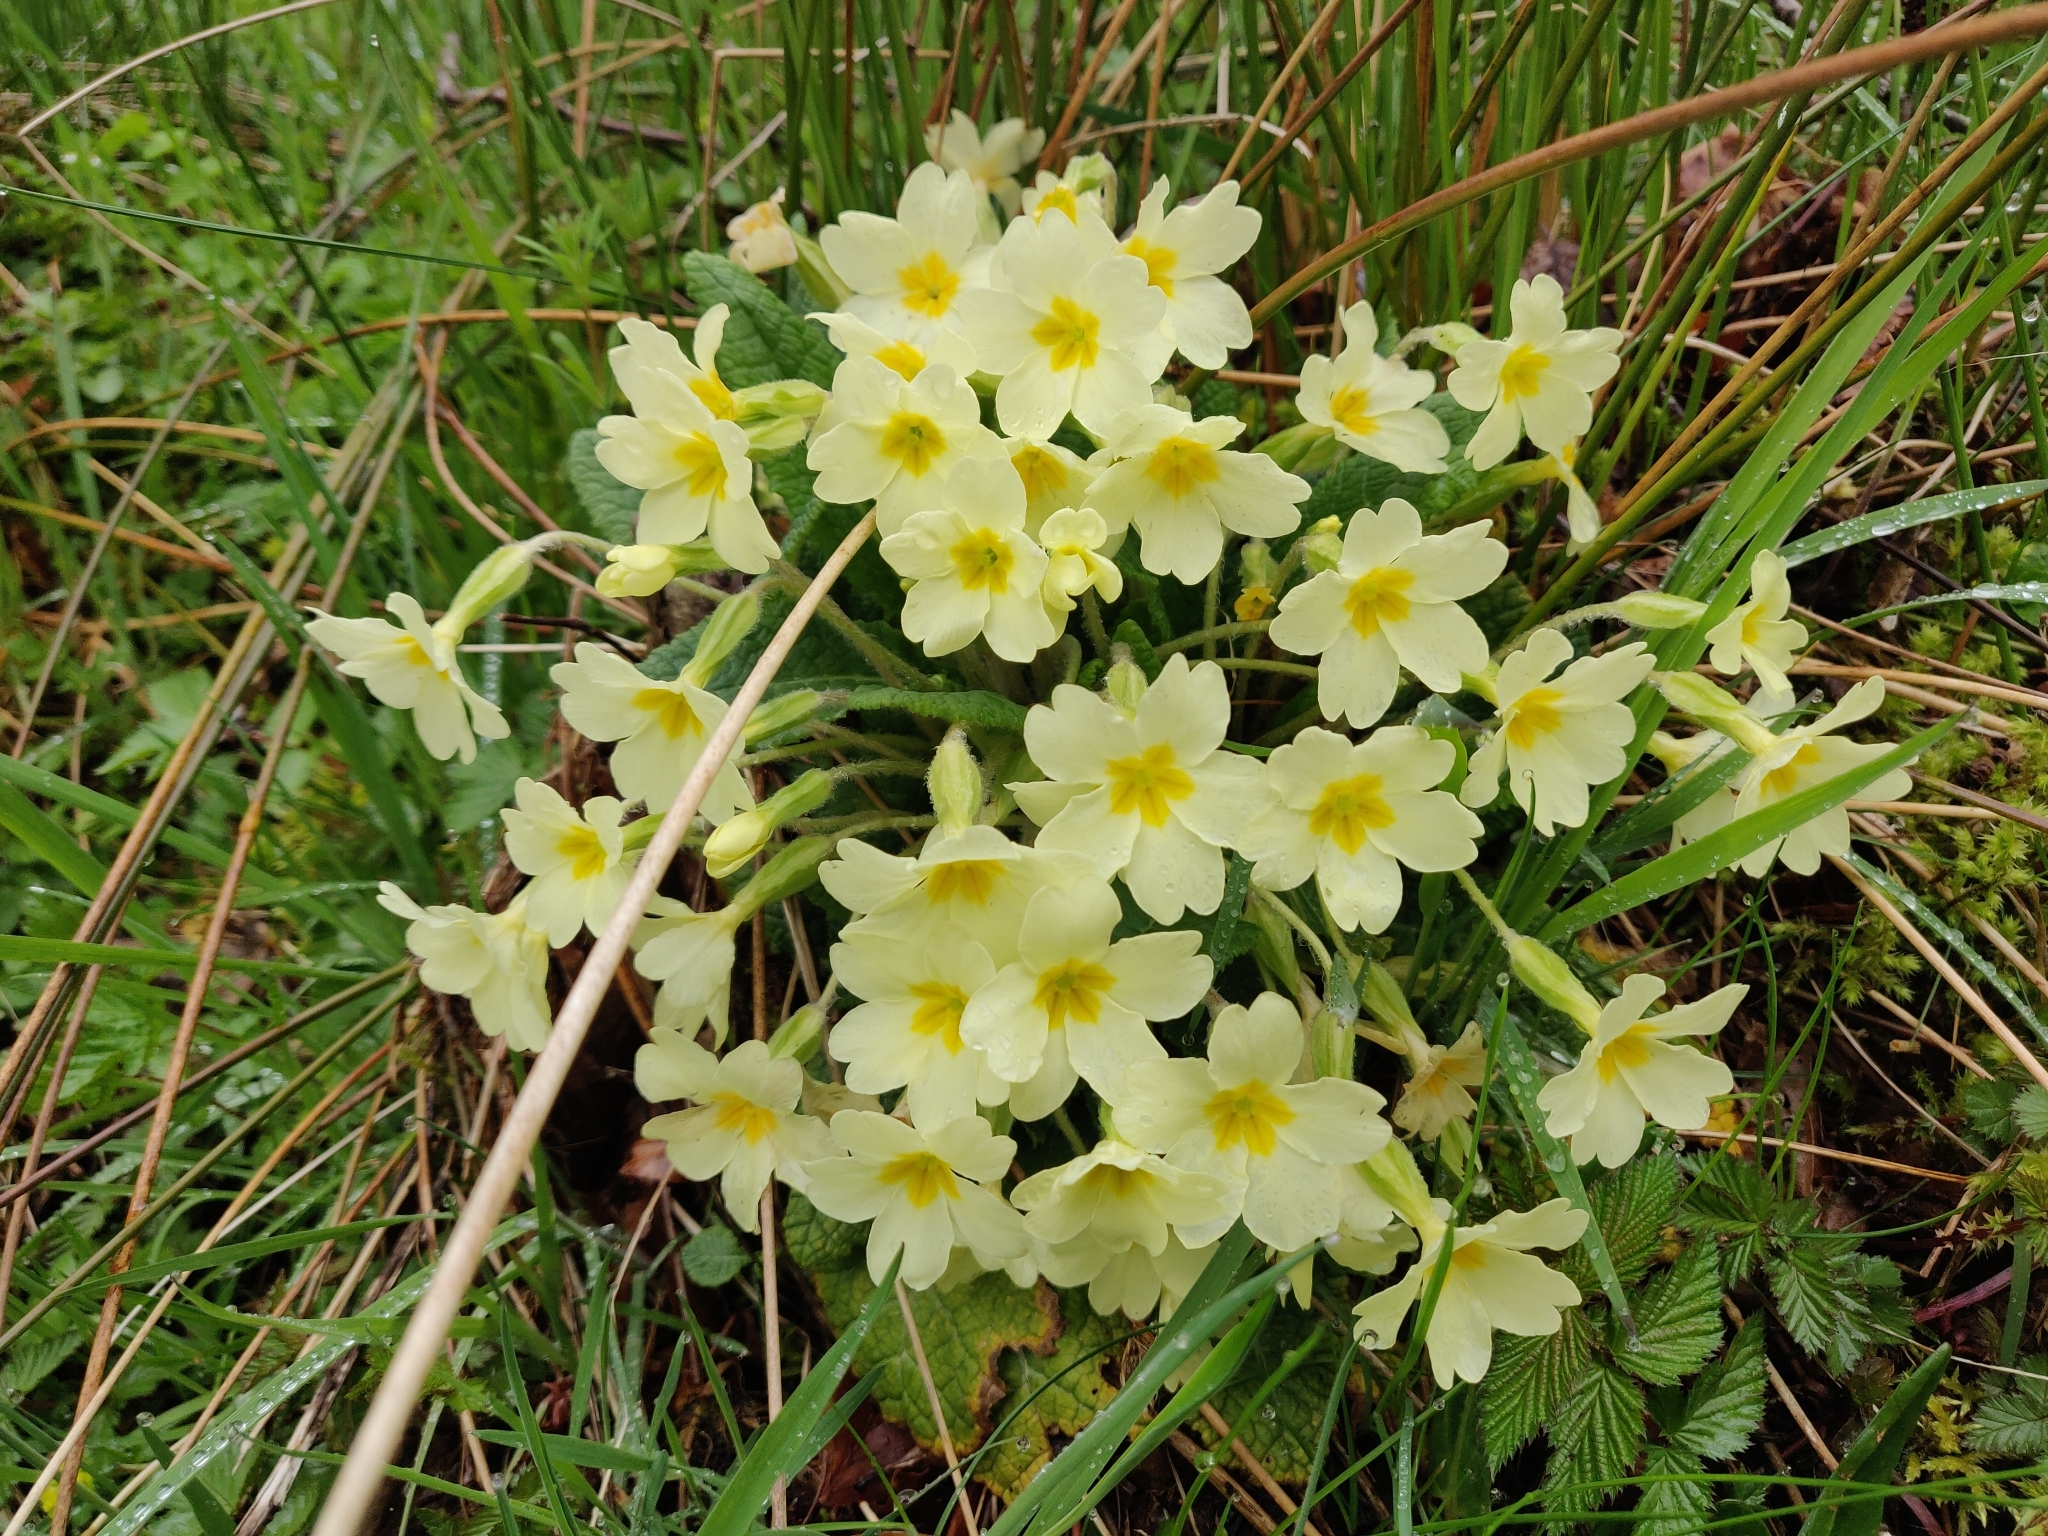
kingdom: Plantae
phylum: Tracheophyta
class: Magnoliopsida
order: Ericales
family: Primulaceae
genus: Primula
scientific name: Primula vulgaris
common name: Primrose
